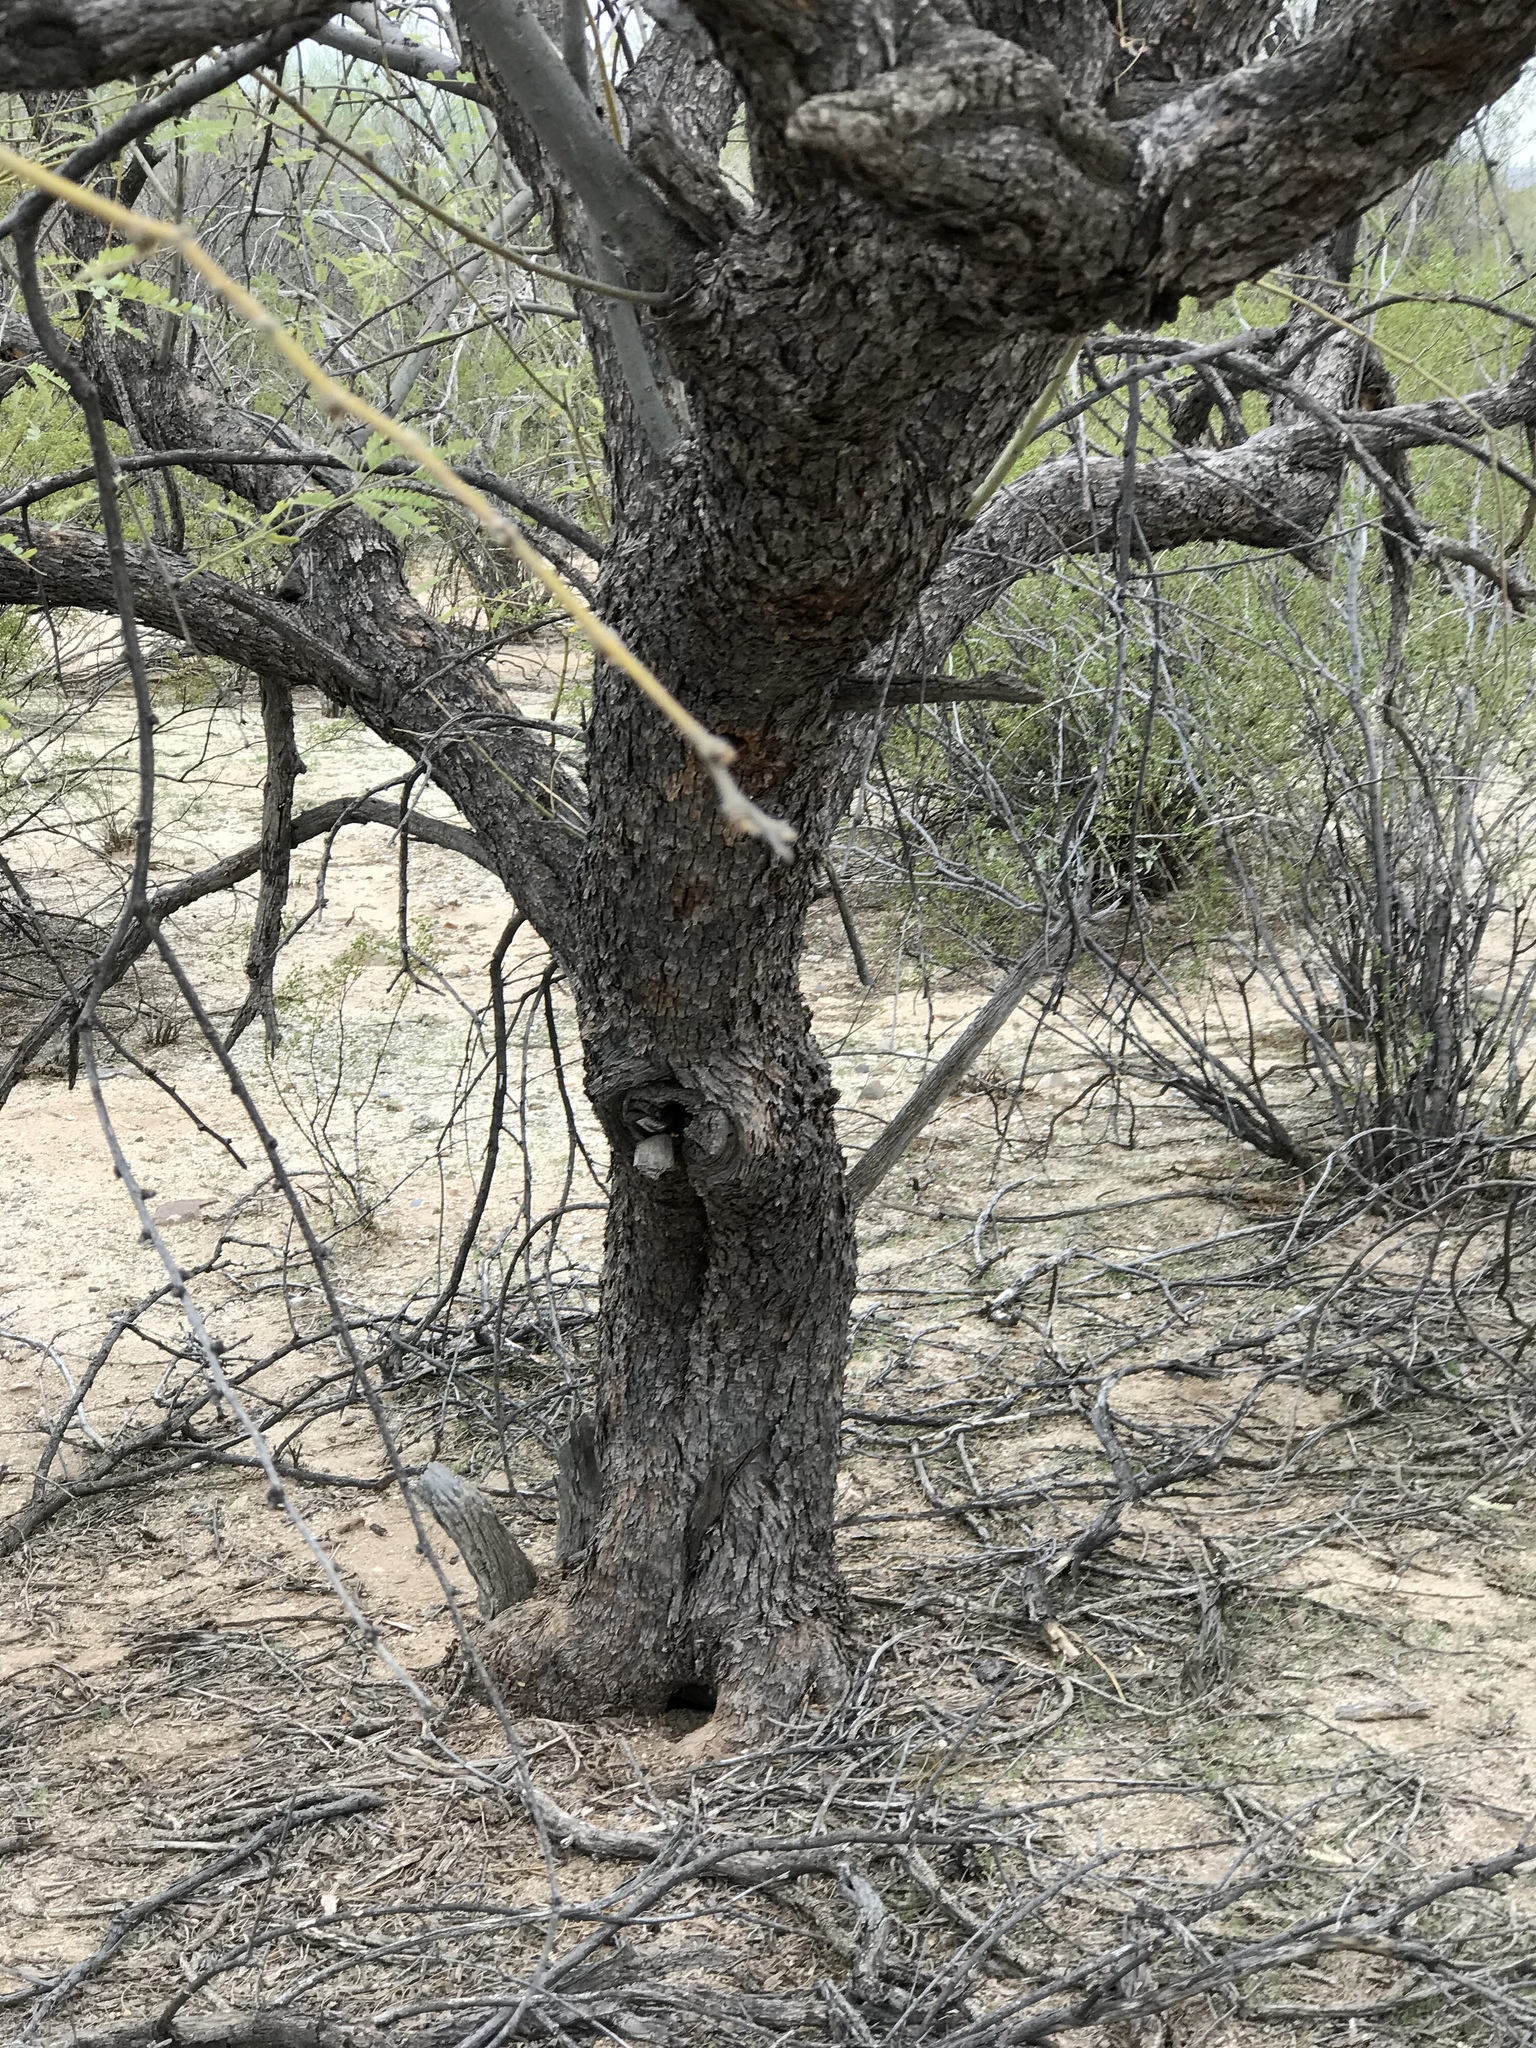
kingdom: Plantae
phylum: Tracheophyta
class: Magnoliopsida
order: Fabales
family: Fabaceae
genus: Prosopis
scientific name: Prosopis velutina
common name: Velvet mesquite
